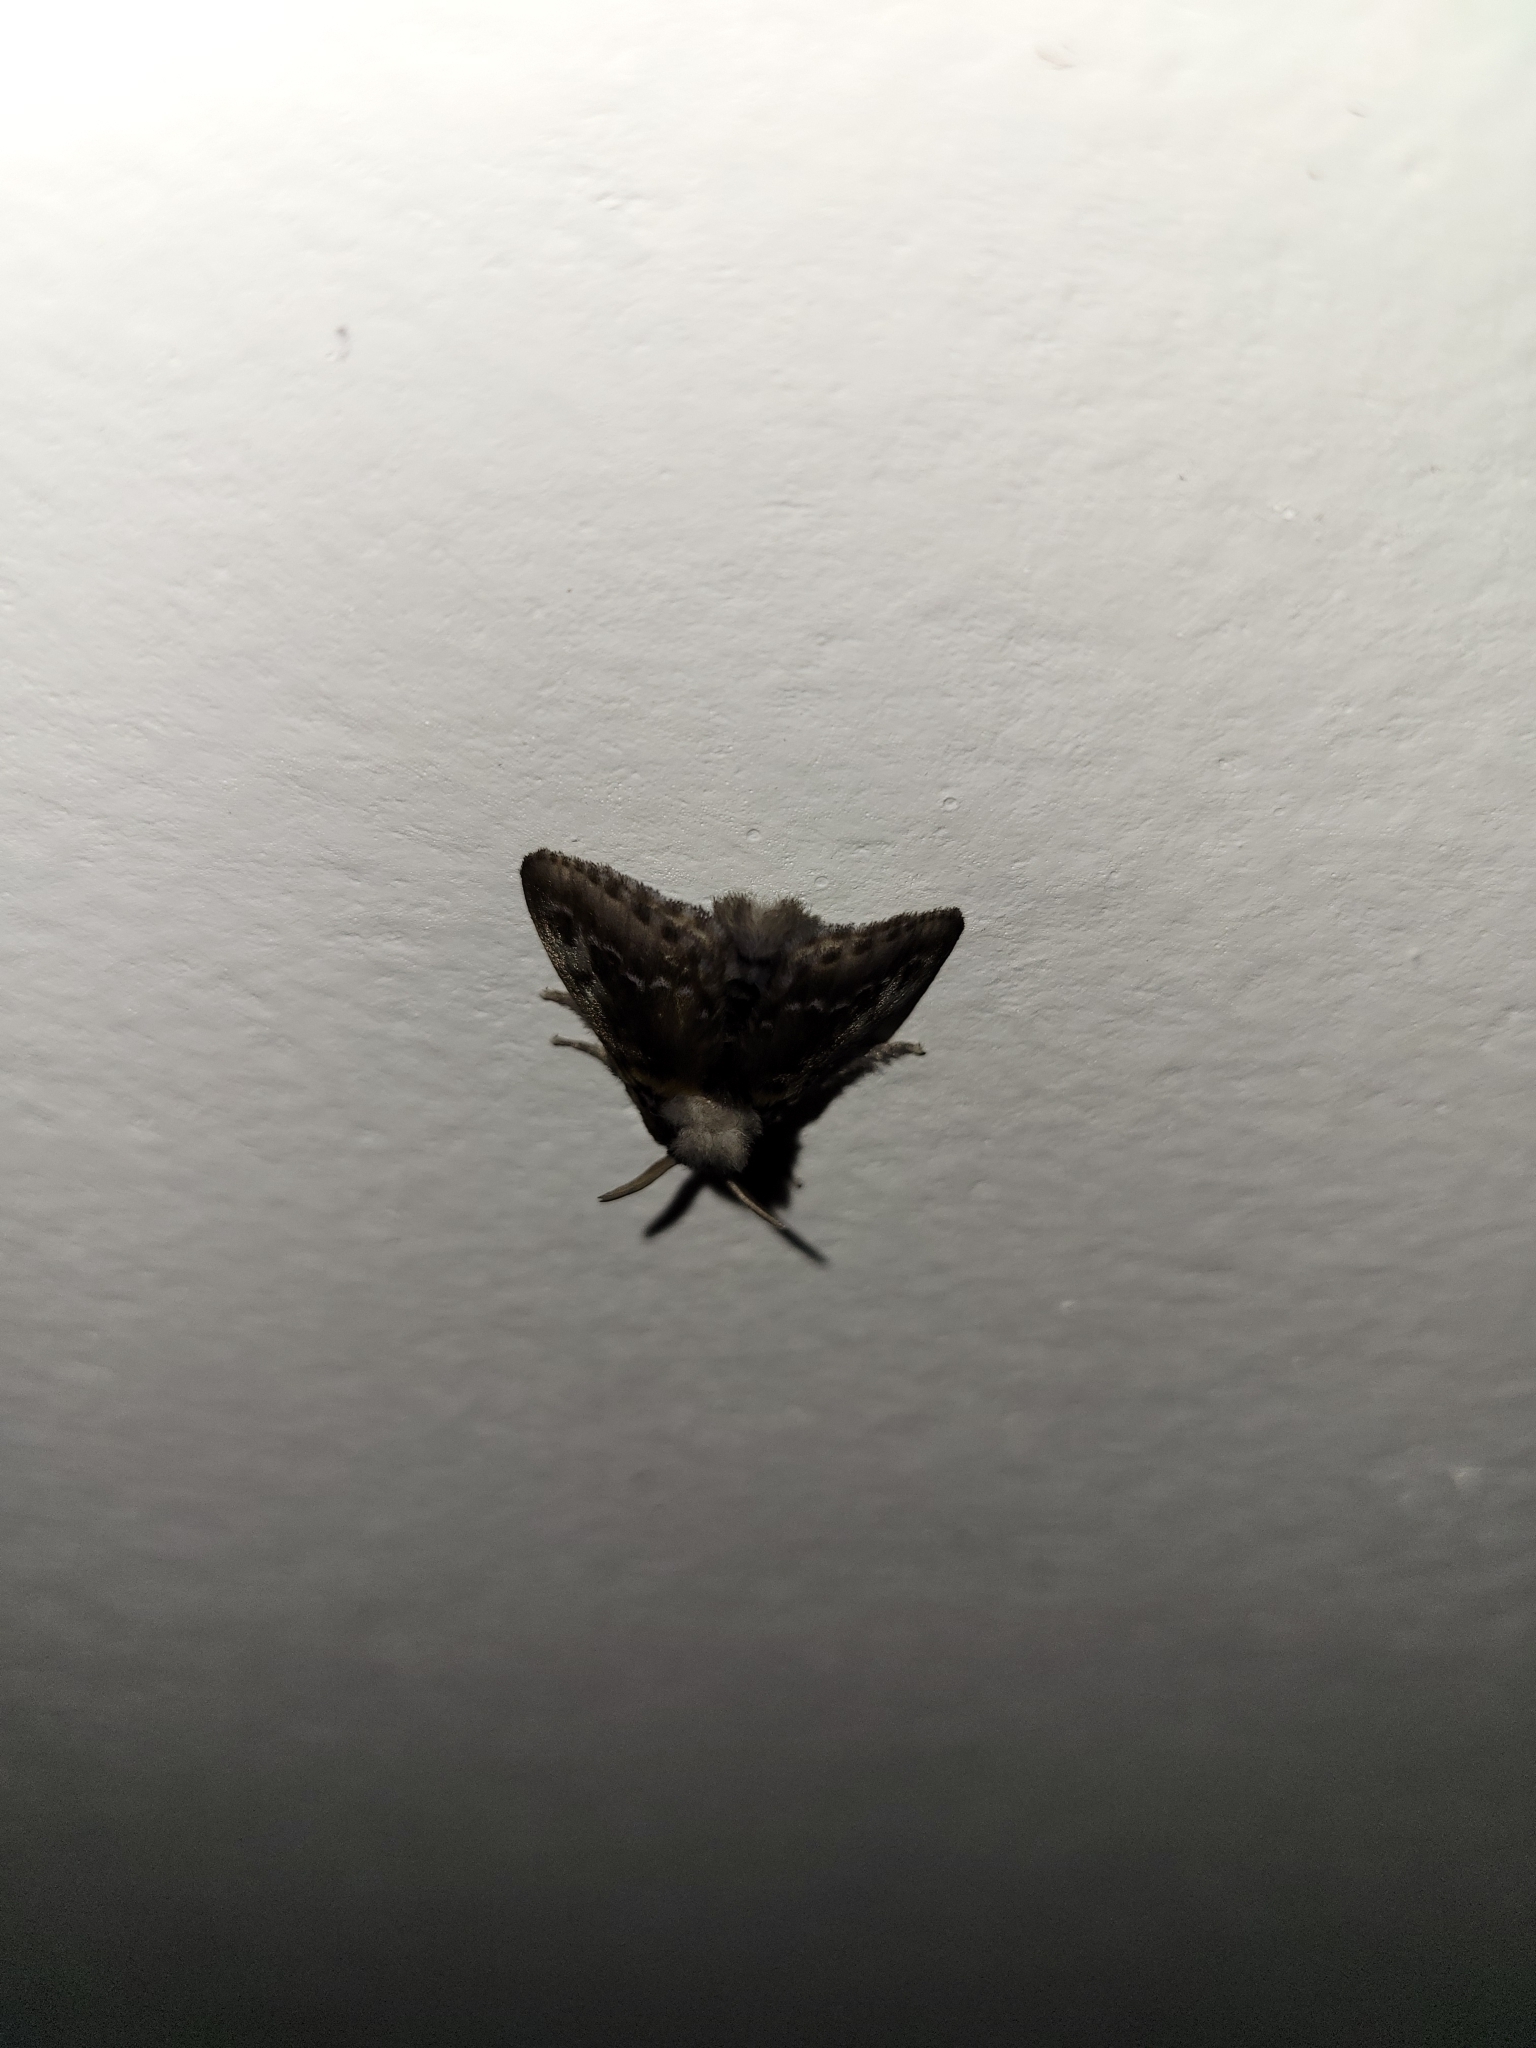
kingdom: Animalia
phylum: Arthropoda
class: Insecta
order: Lepidoptera
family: Megalopygidae
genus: Podalia
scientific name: Podalia habitus
